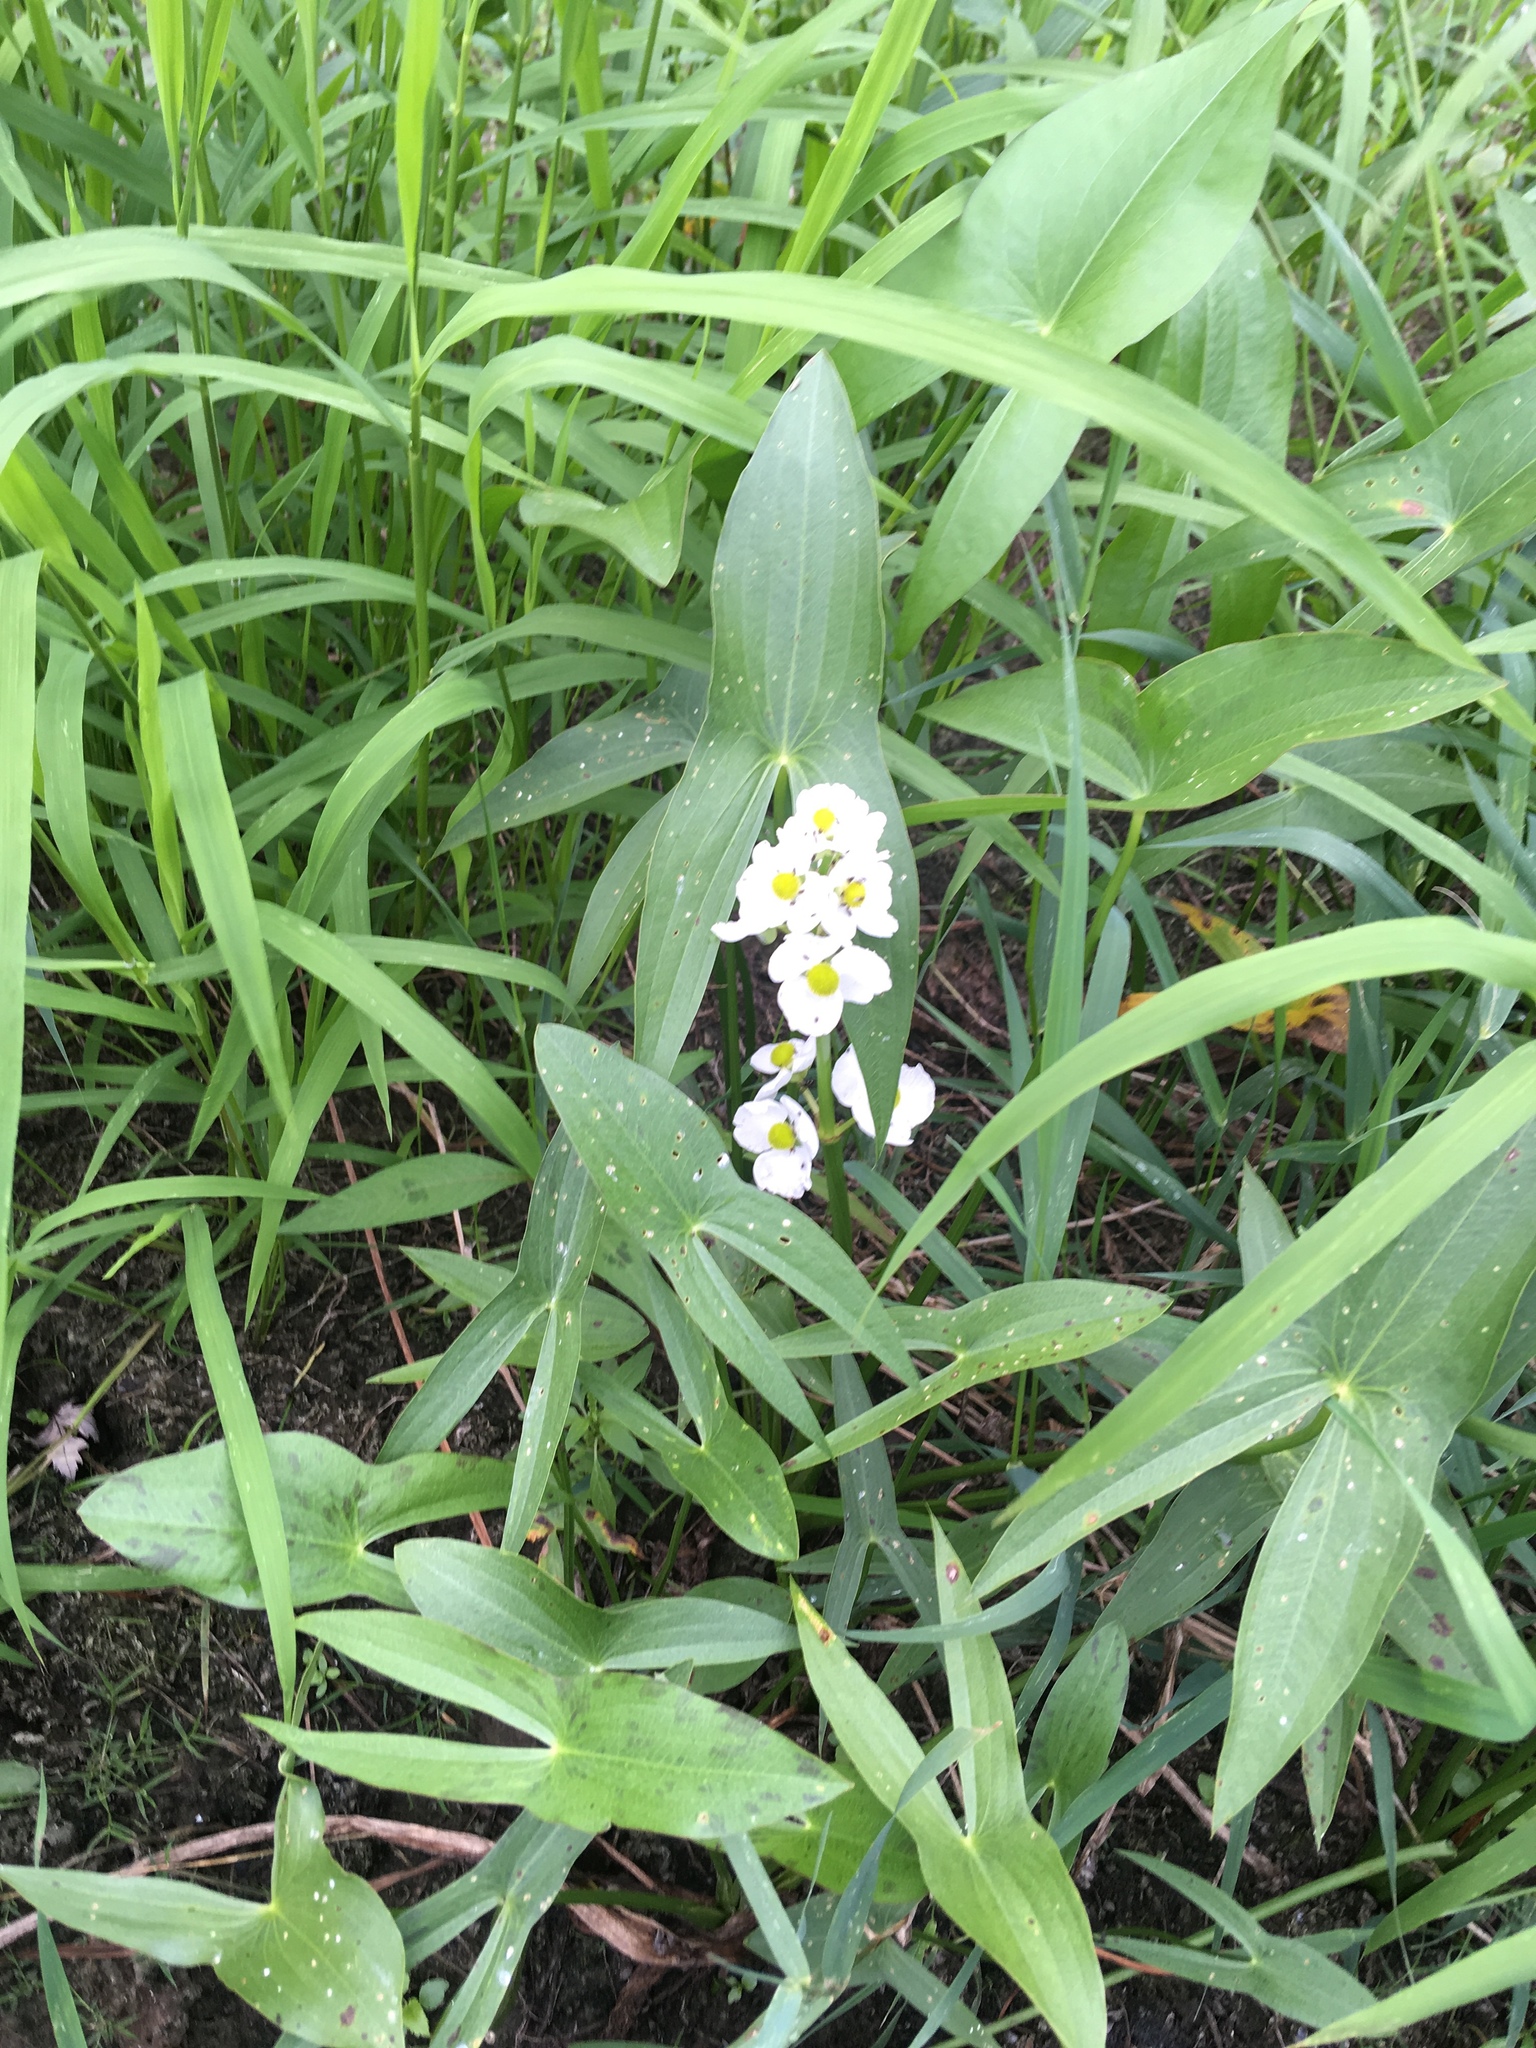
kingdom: Plantae
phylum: Tracheophyta
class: Liliopsida
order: Alismatales
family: Alismataceae
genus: Sagittaria
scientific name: Sagittaria latifolia
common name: Duck-potato
